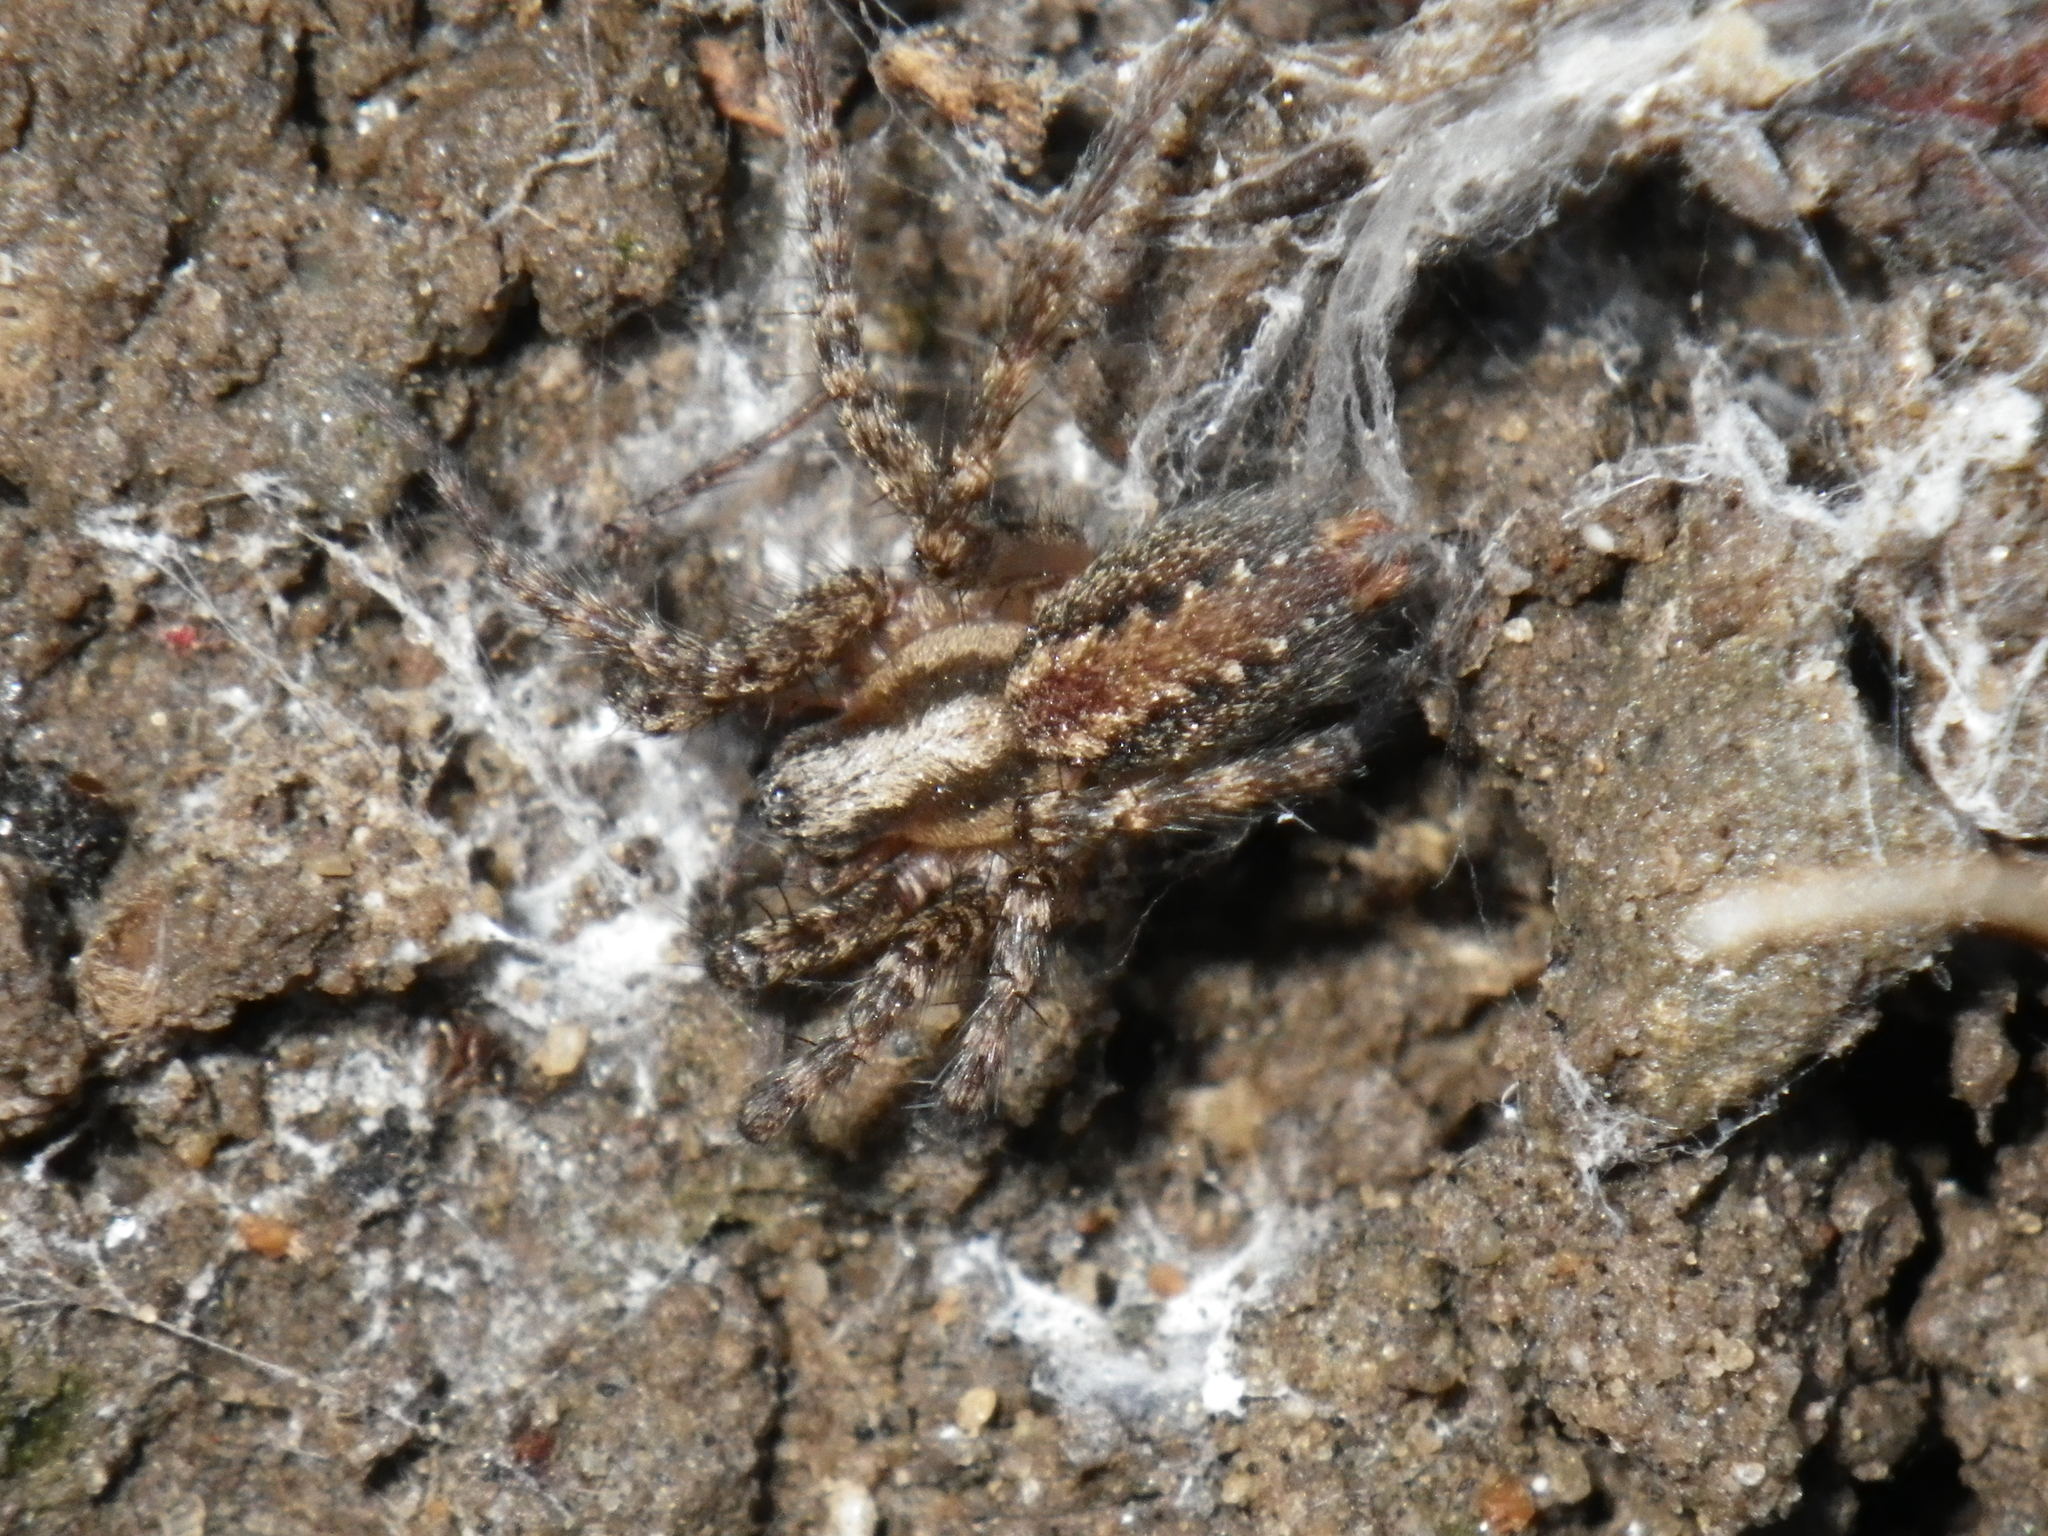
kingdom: Animalia
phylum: Arthropoda
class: Arachnida
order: Araneae
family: Agelenidae
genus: Hololena
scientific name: Hololena
